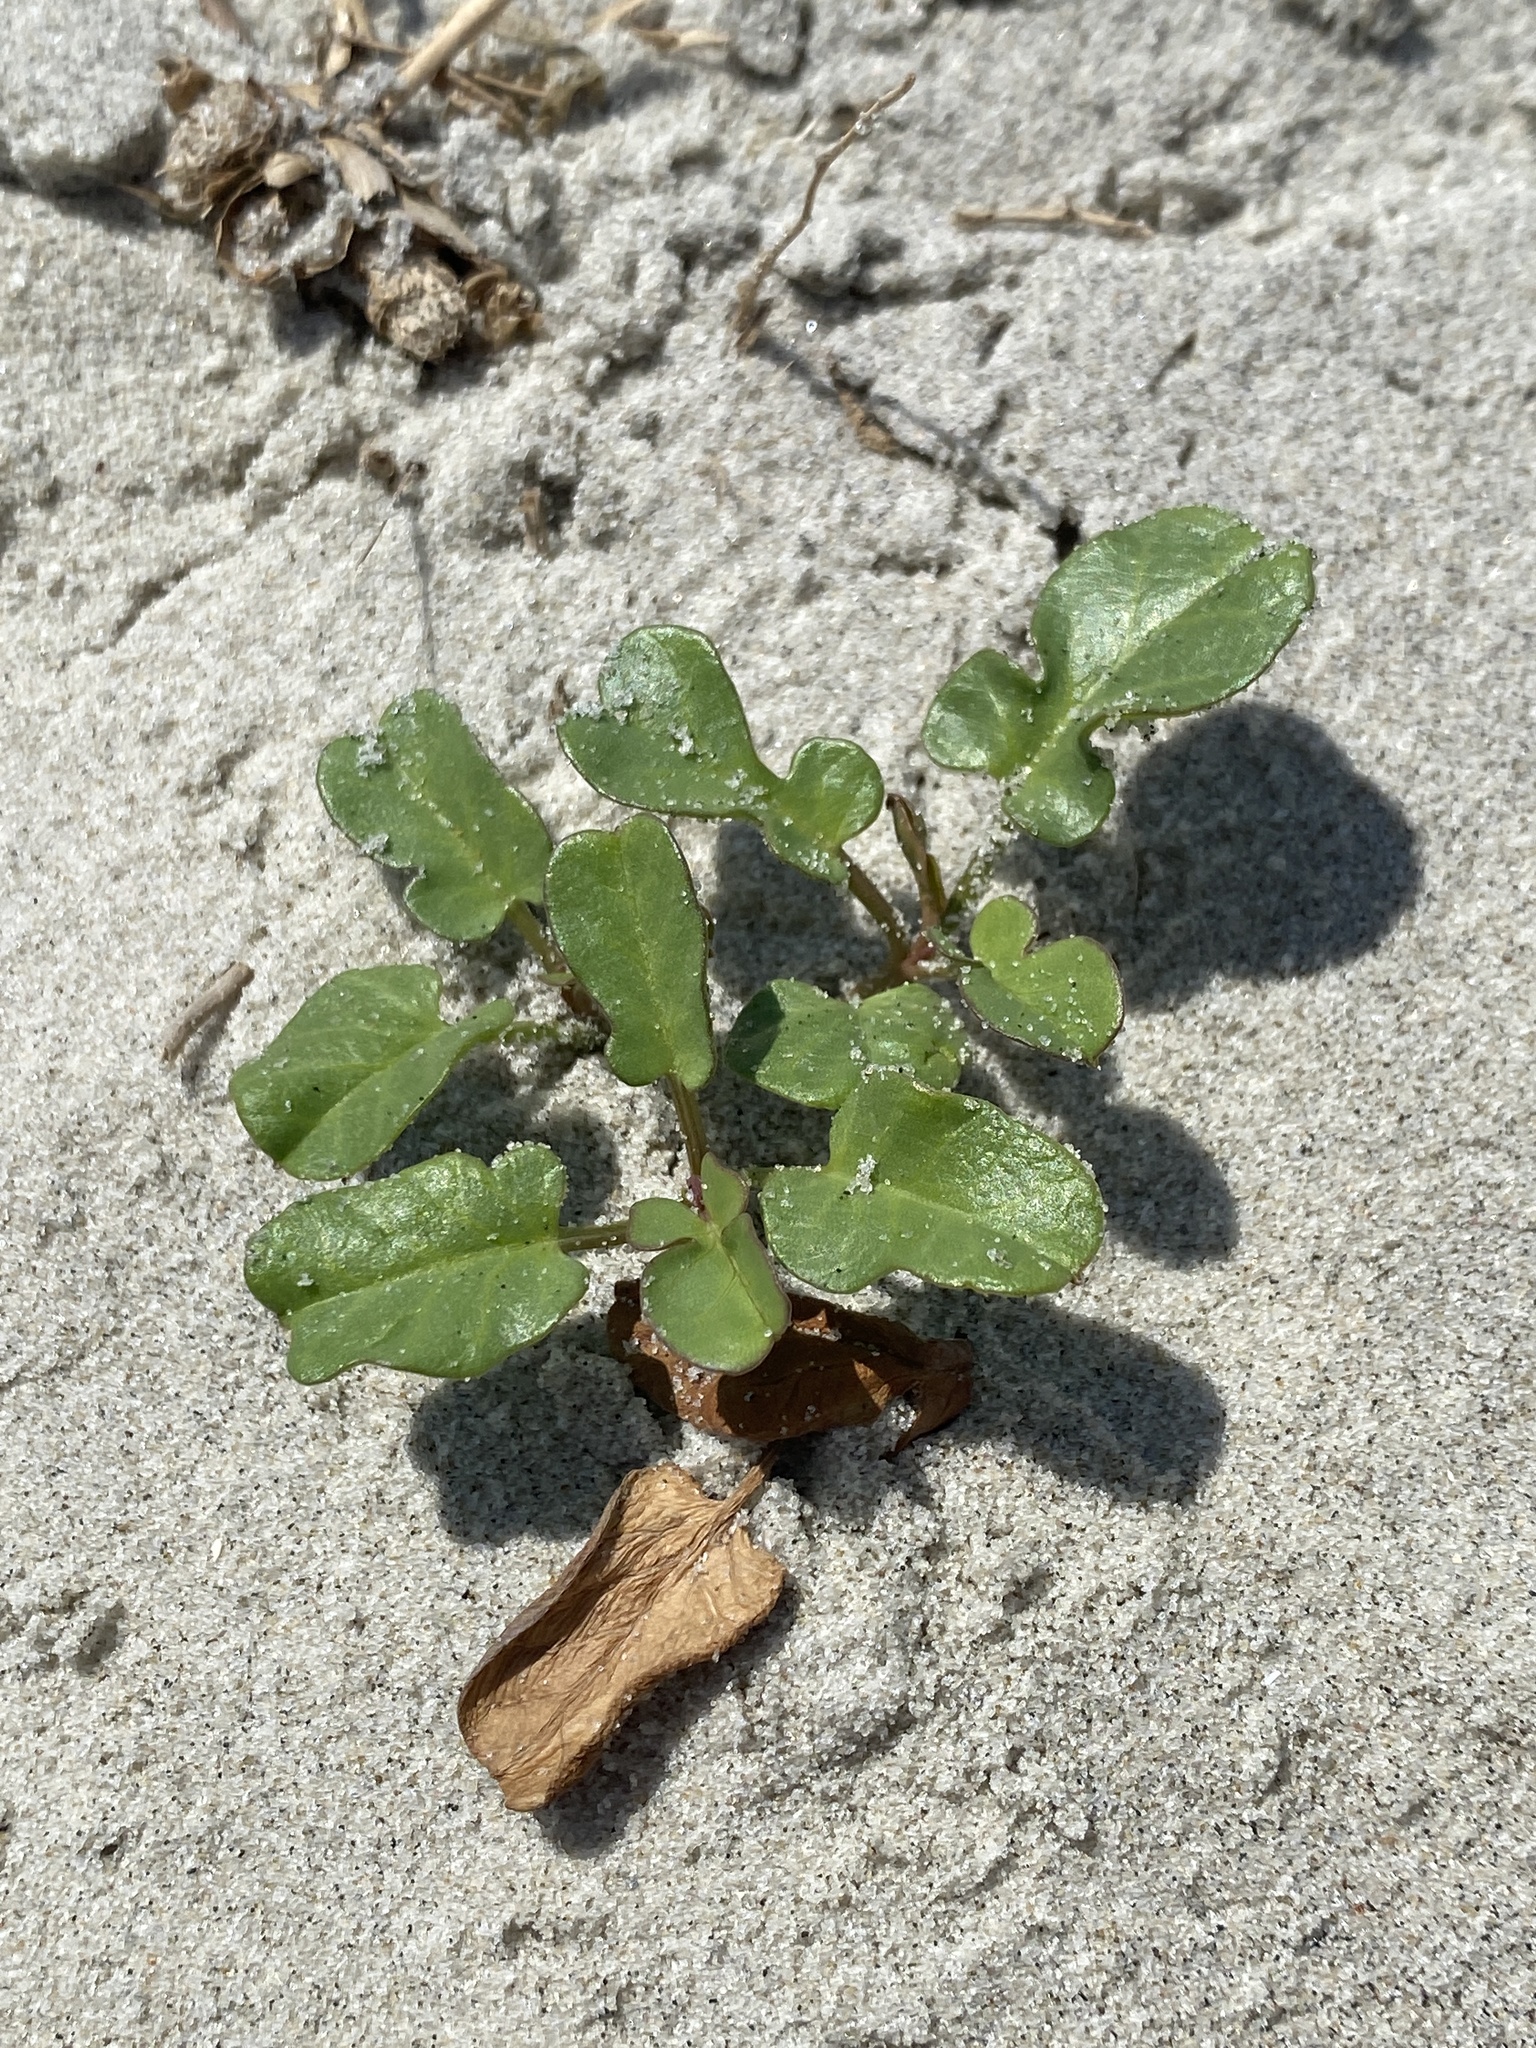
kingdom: Plantae
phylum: Tracheophyta
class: Magnoliopsida
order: Solanales
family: Convolvulaceae
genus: Ipomoea
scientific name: Ipomoea imperati
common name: Fiddle-leaf morning-glory
